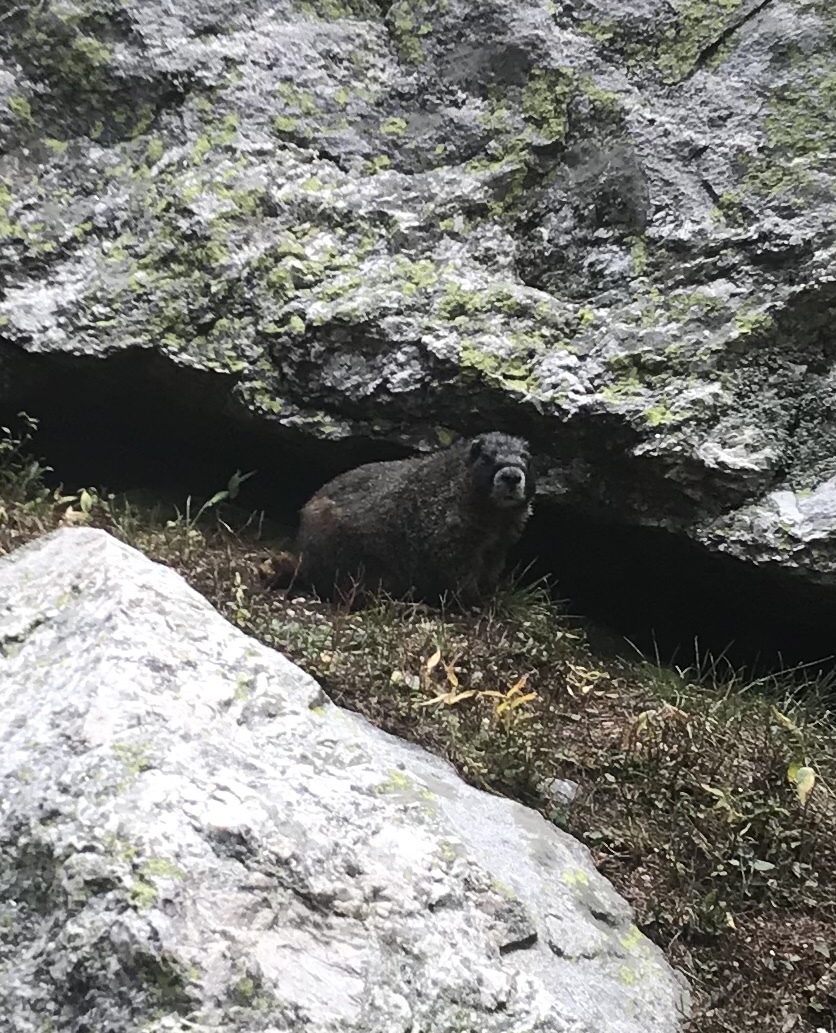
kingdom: Animalia
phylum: Chordata
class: Mammalia
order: Rodentia
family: Sciuridae
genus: Marmota
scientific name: Marmota flaviventris
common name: Yellow-bellied marmot
